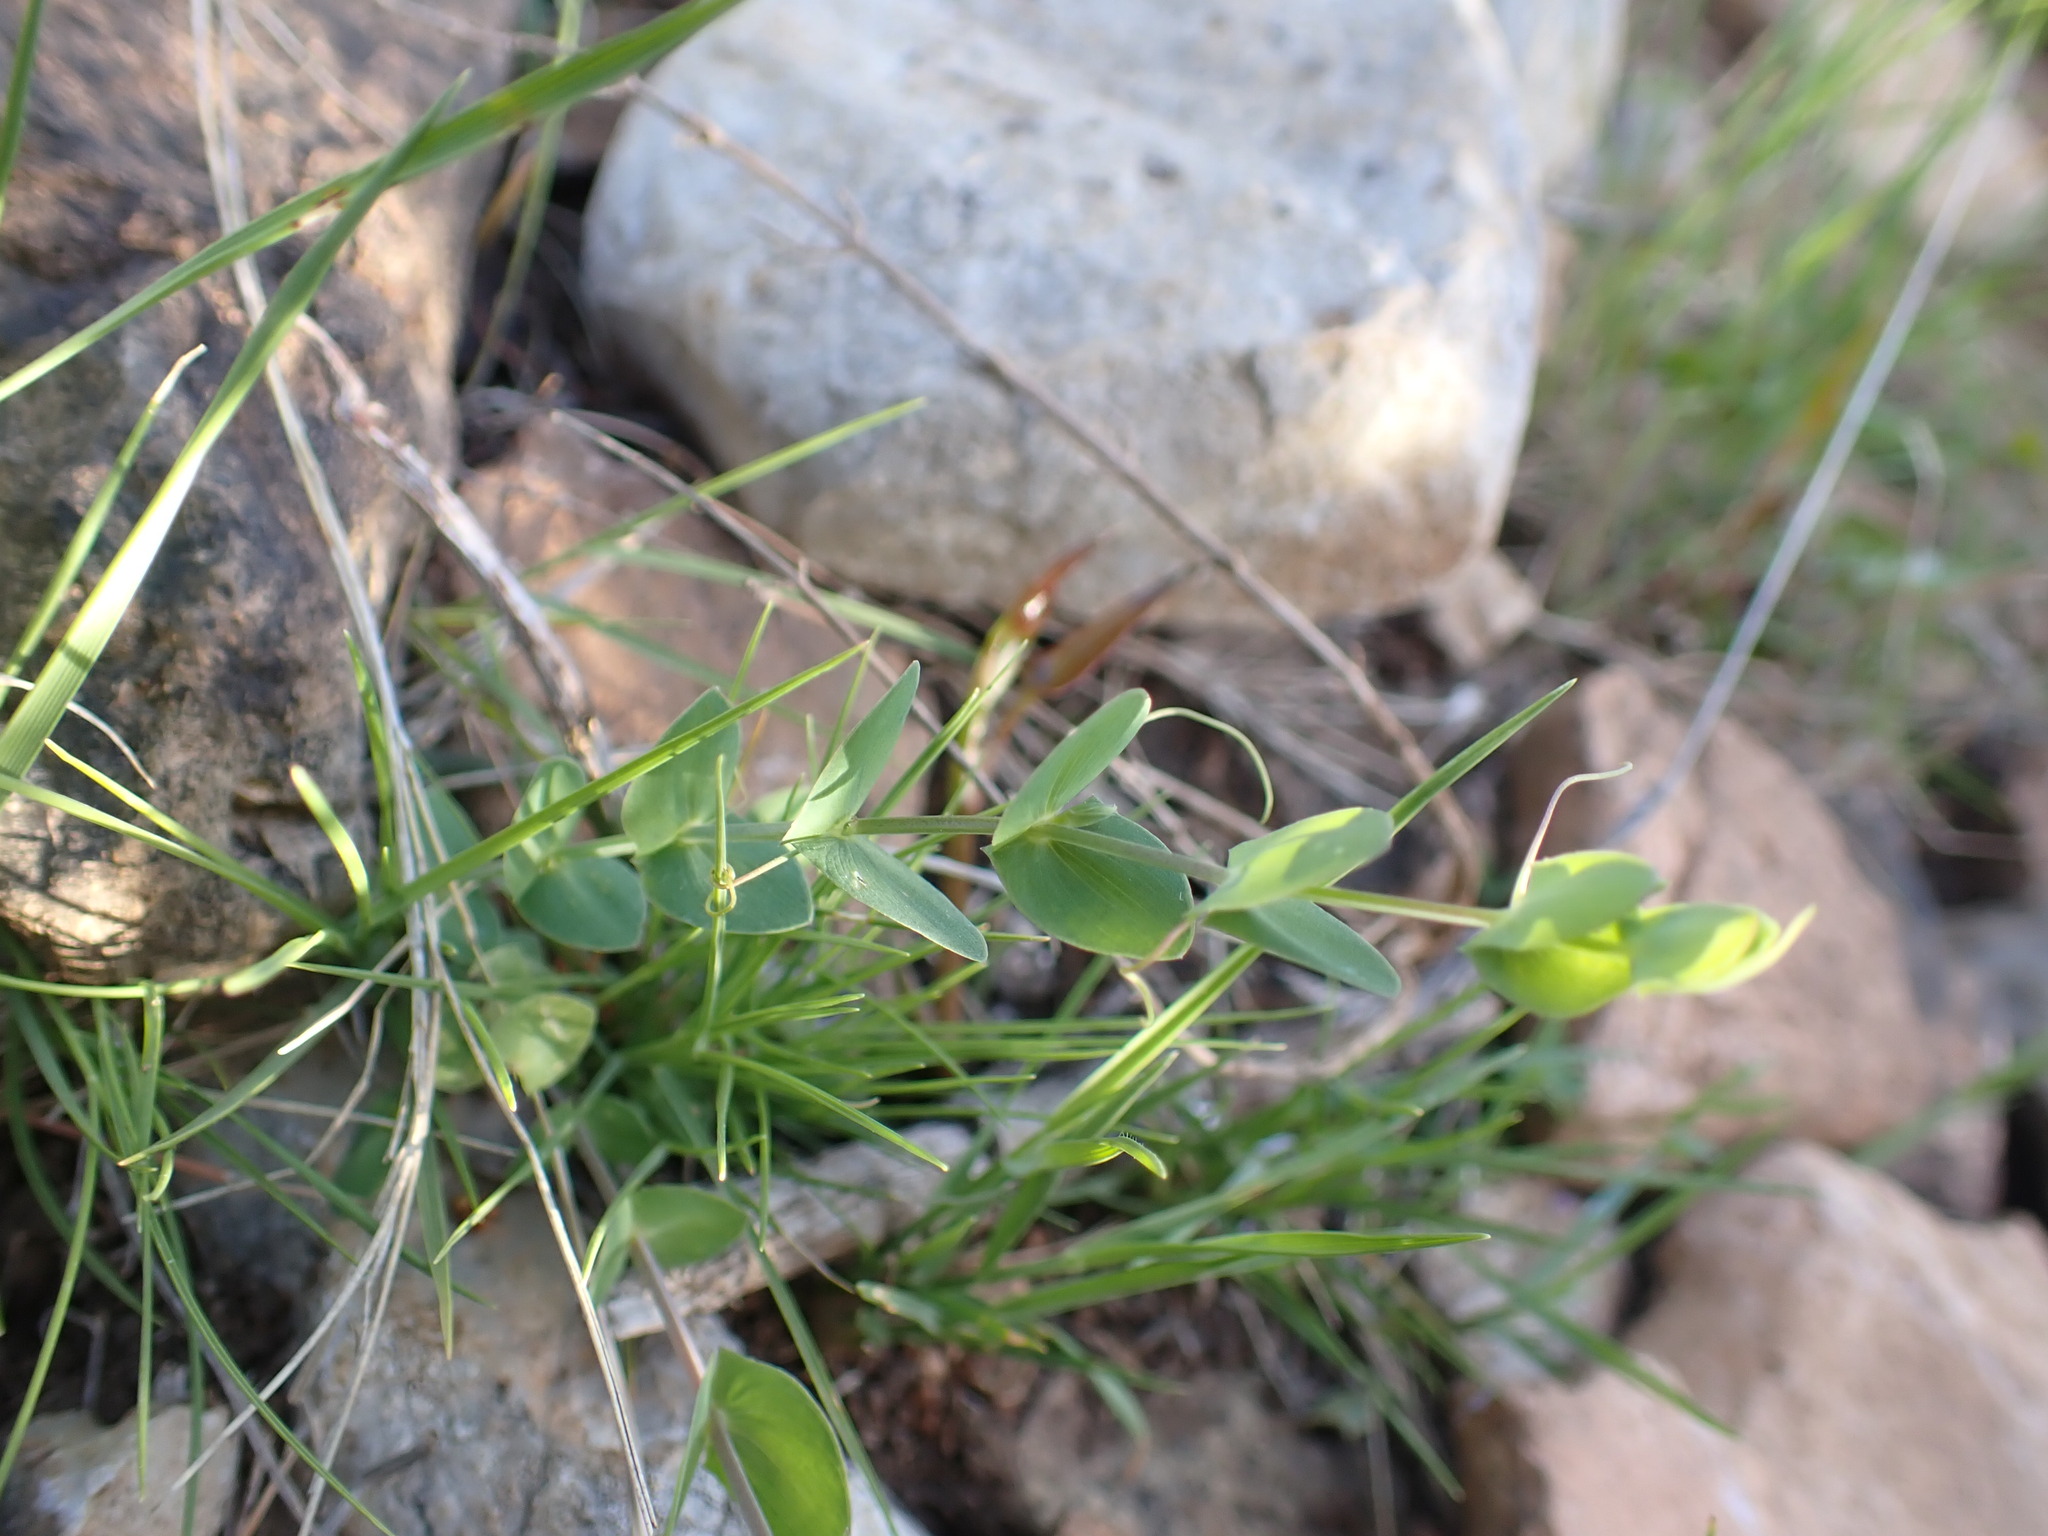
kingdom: Plantae
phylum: Tracheophyta
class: Magnoliopsida
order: Fabales
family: Fabaceae
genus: Lathyrus
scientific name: Lathyrus aphaca
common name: Yellow vetchling
